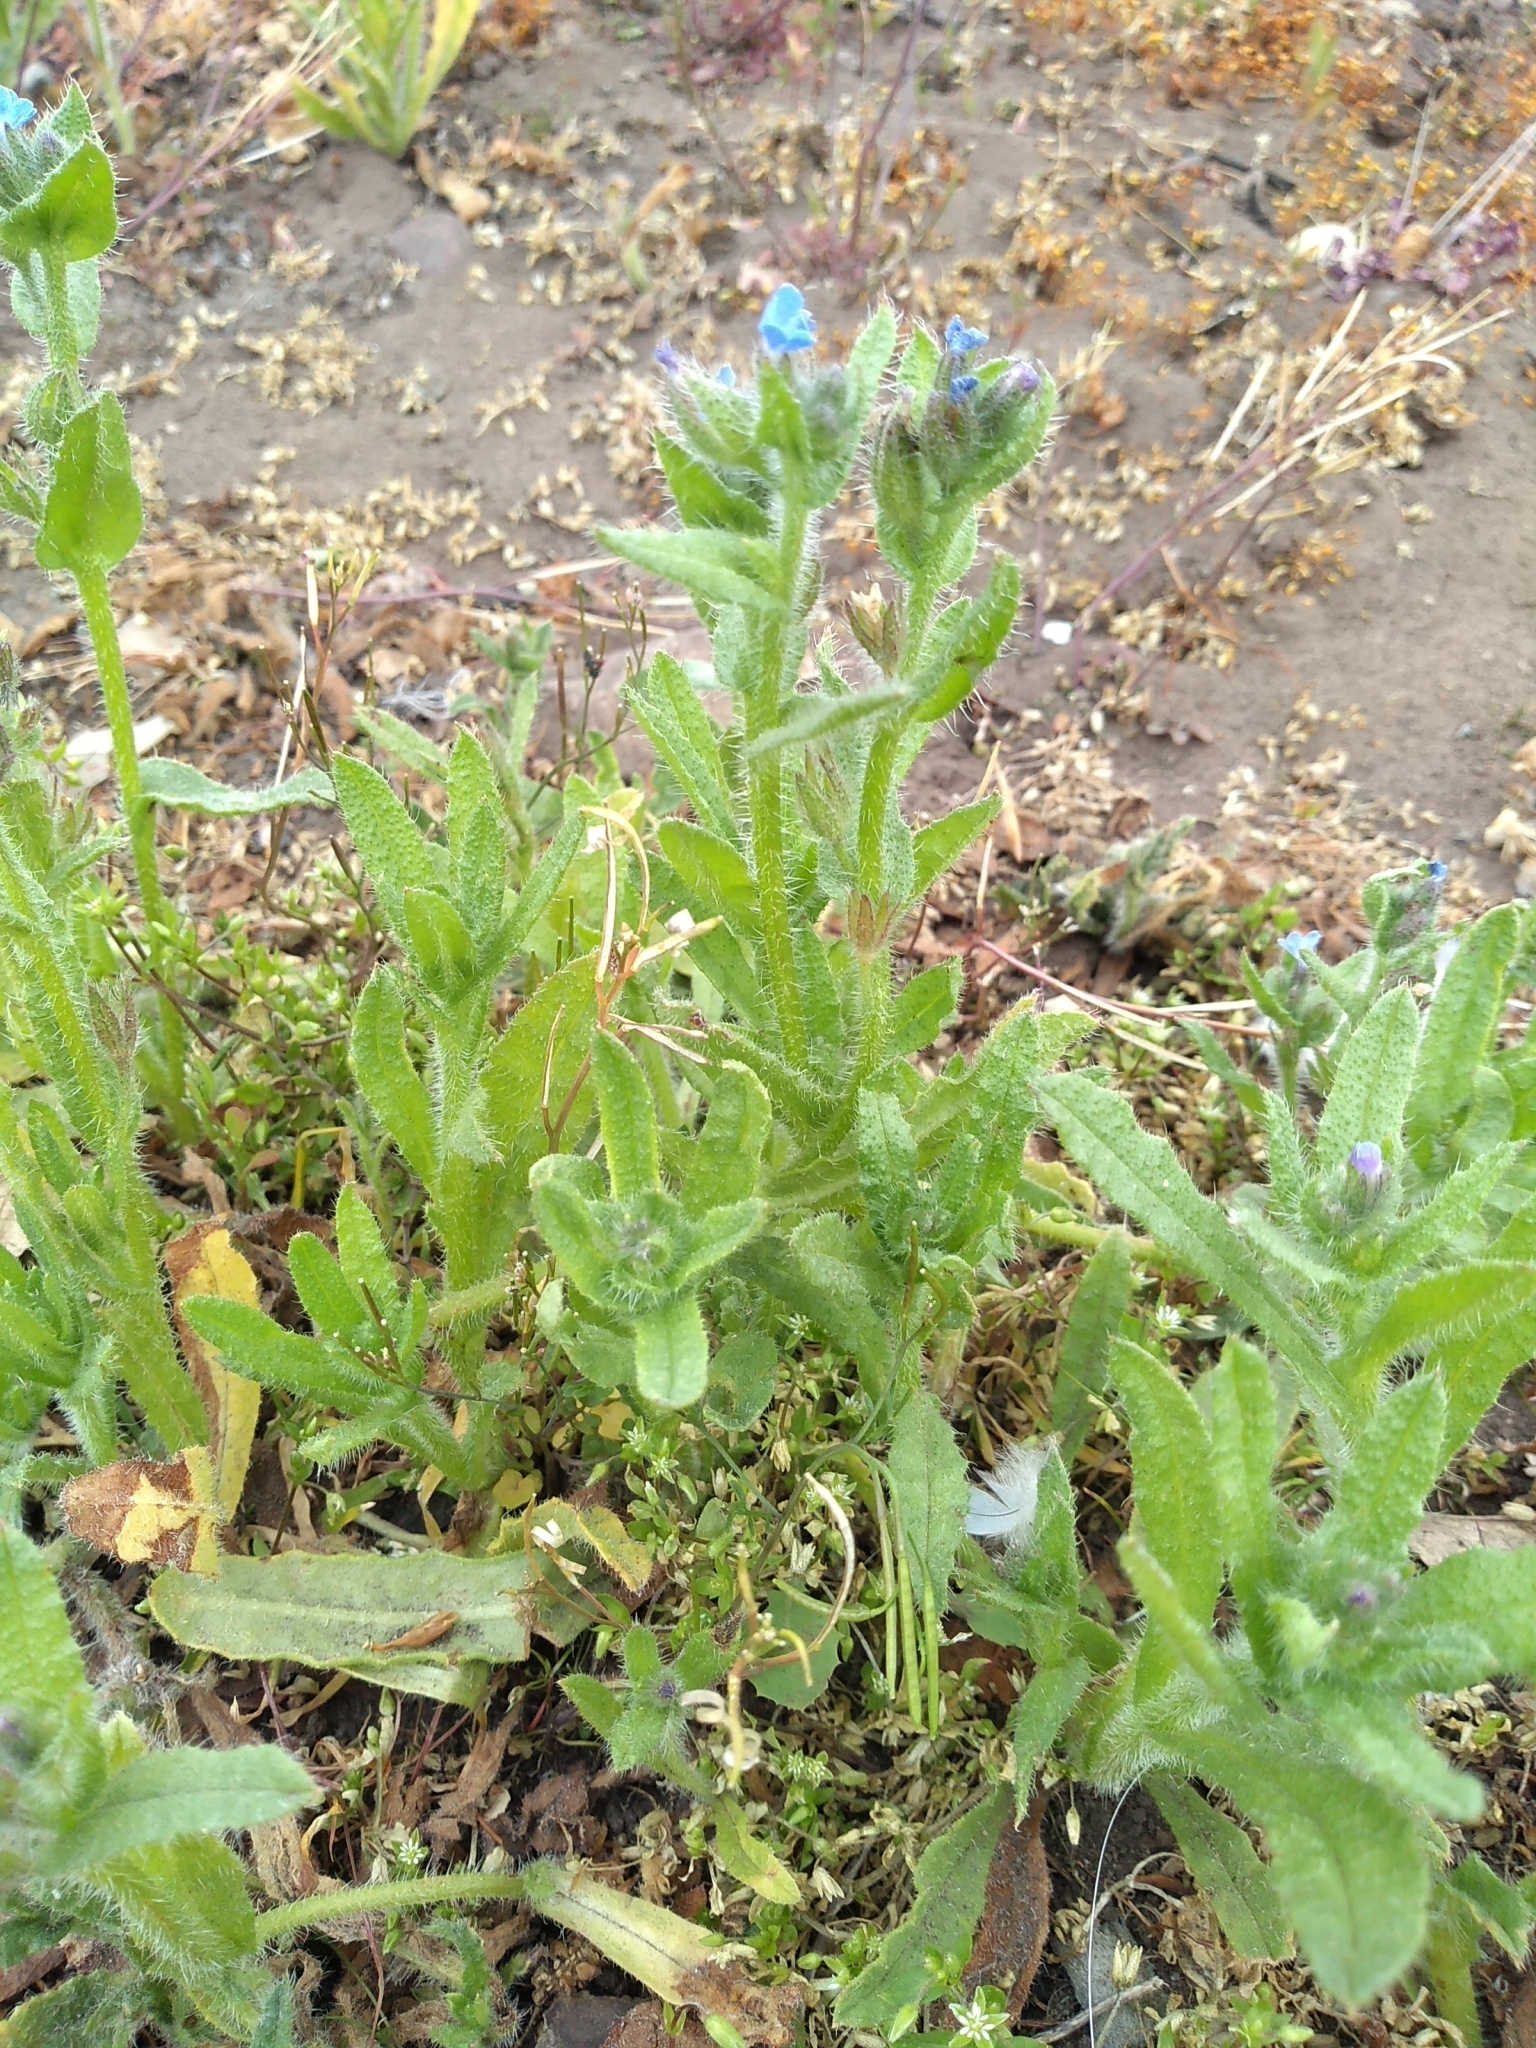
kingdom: Plantae
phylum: Tracheophyta
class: Magnoliopsida
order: Boraginales
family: Boraginaceae
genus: Lycopsis
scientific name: Lycopsis arvensis
